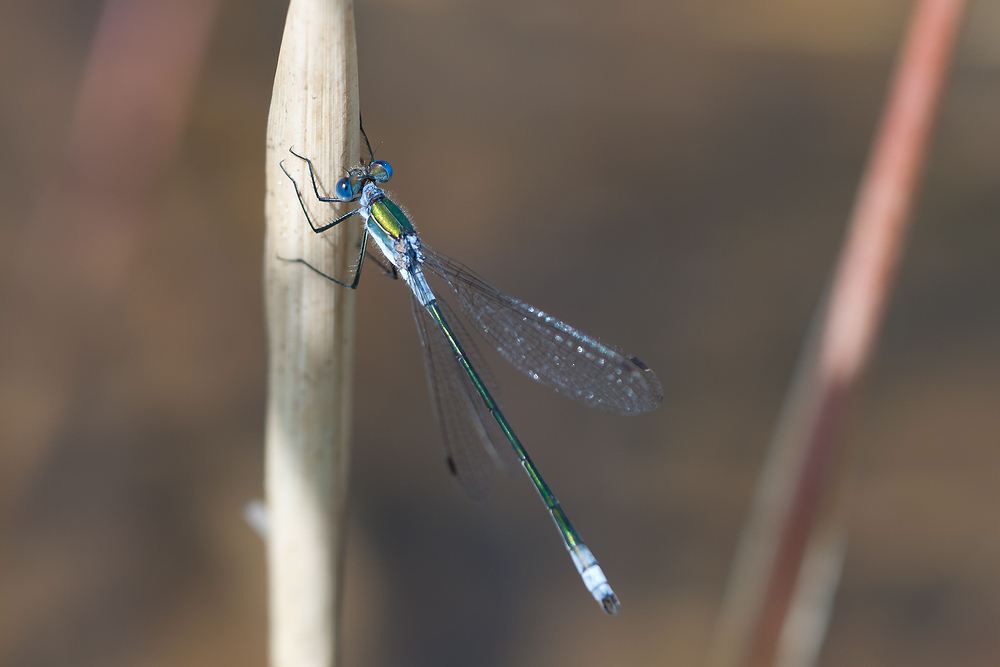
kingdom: Animalia
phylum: Arthropoda
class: Insecta
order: Odonata
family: Lestidae
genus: Lestes
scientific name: Lestes sponsa
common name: Common spreadwing
